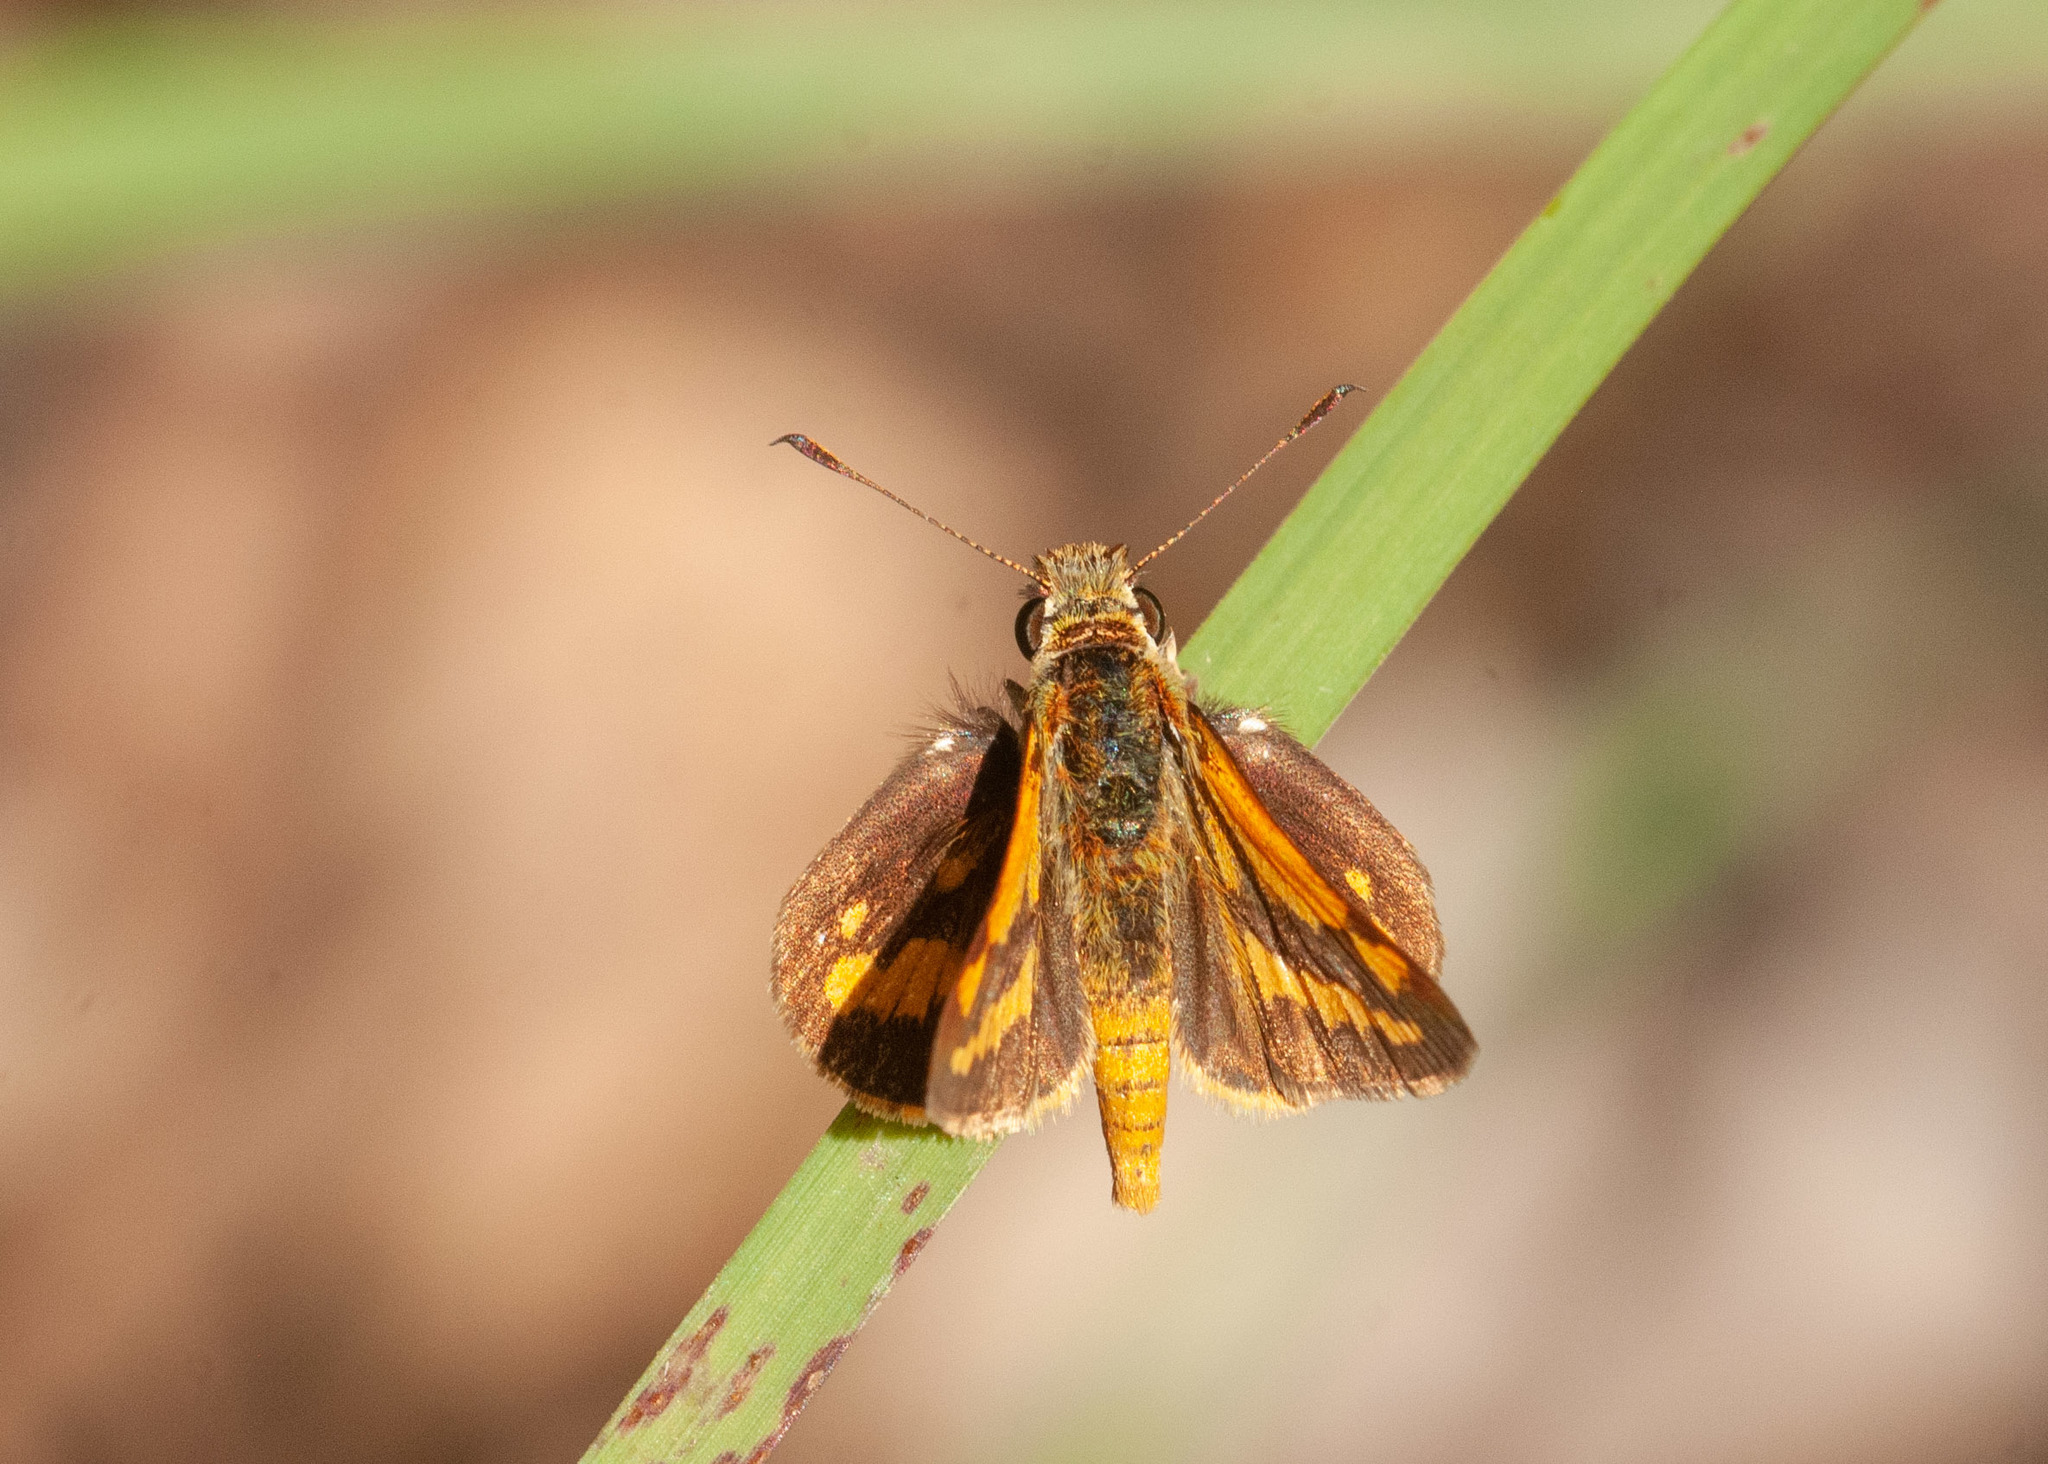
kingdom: Animalia
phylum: Arthropoda
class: Insecta
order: Lepidoptera
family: Hesperiidae
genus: Suniana
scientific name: Suniana sunias
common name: Wide-brand grass-dart
